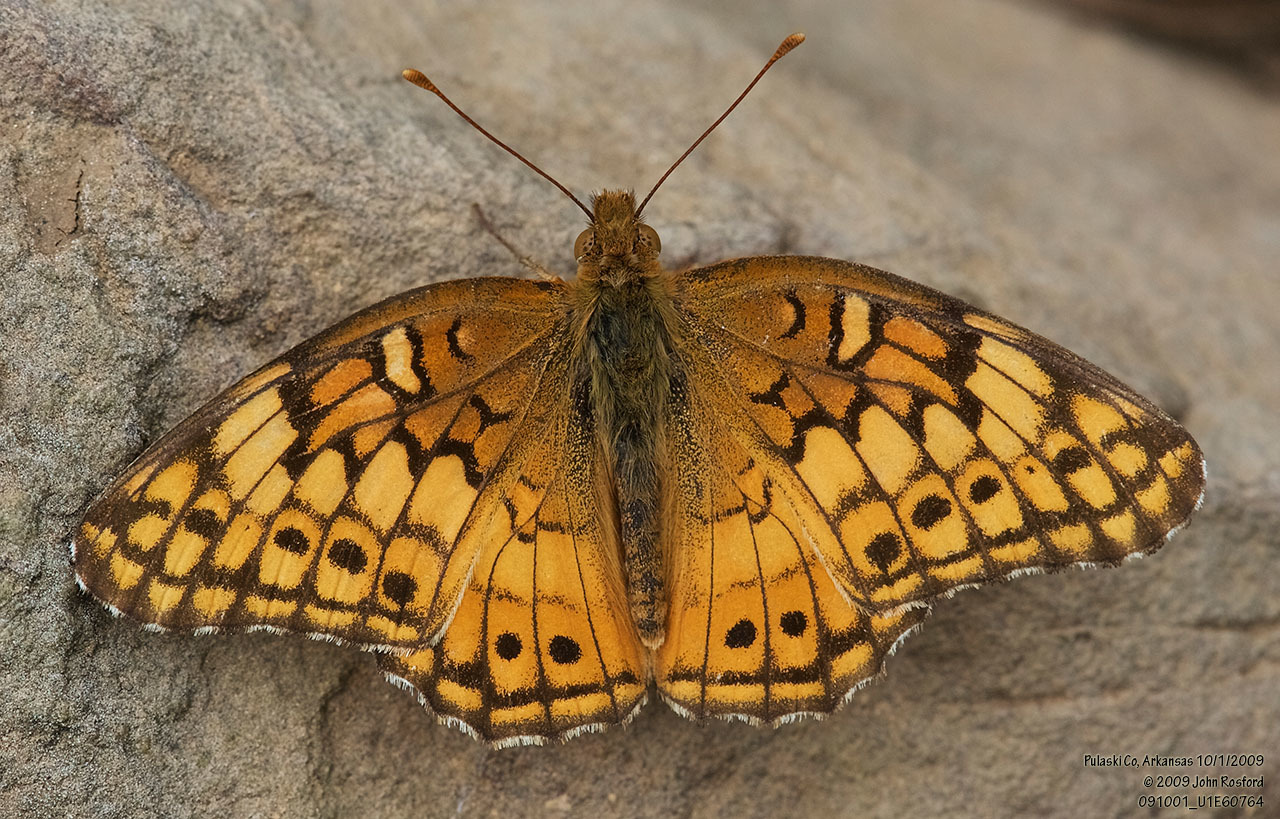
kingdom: Animalia
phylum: Arthropoda
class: Insecta
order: Lepidoptera
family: Nymphalidae
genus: Euptoieta
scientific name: Euptoieta claudia
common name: Variegated fritillary
